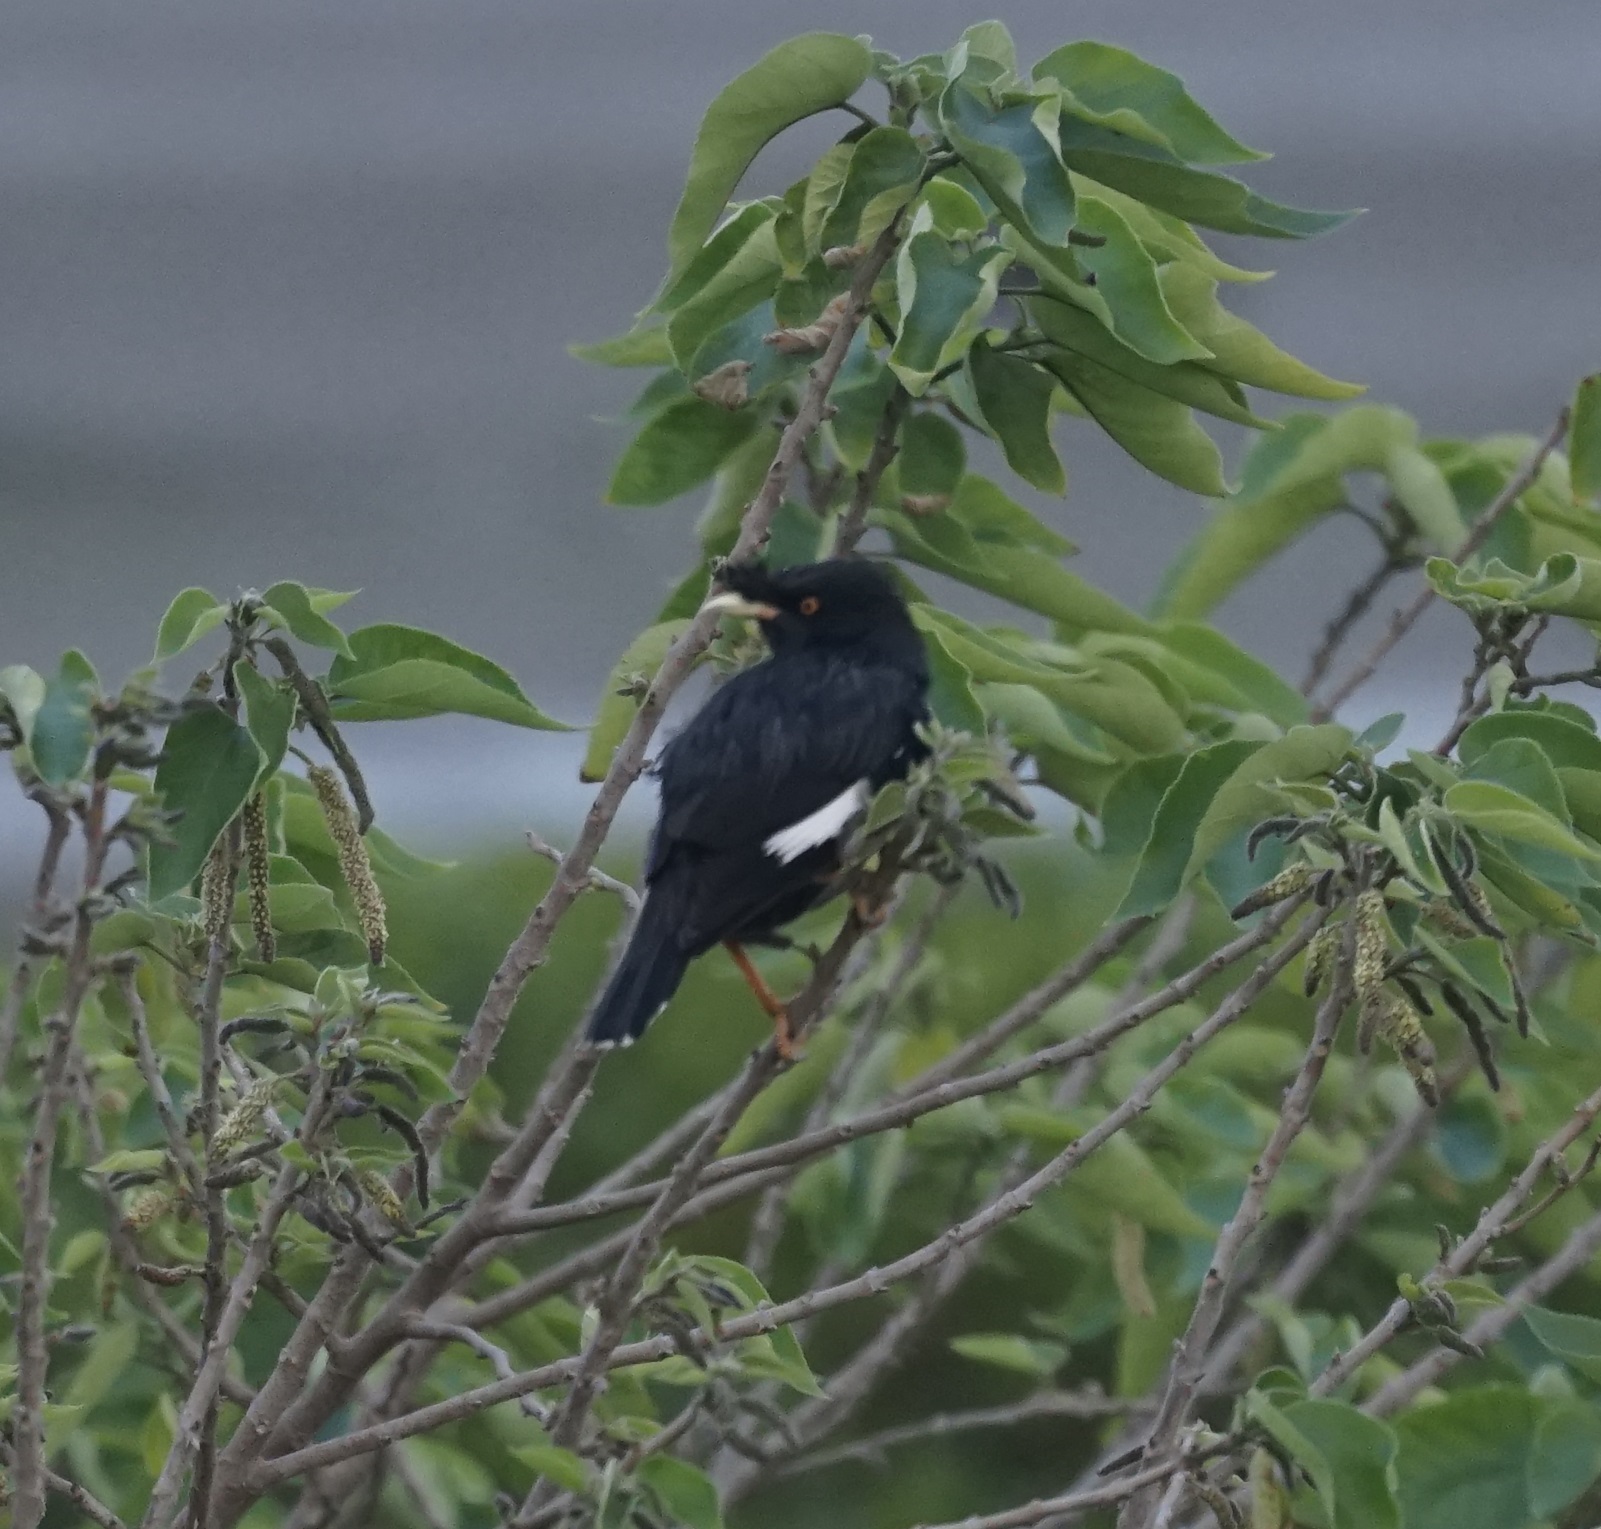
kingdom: Animalia
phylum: Chordata
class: Aves
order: Passeriformes
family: Sturnidae
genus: Acridotheres
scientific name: Acridotheres cristatellus
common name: Crested myna
